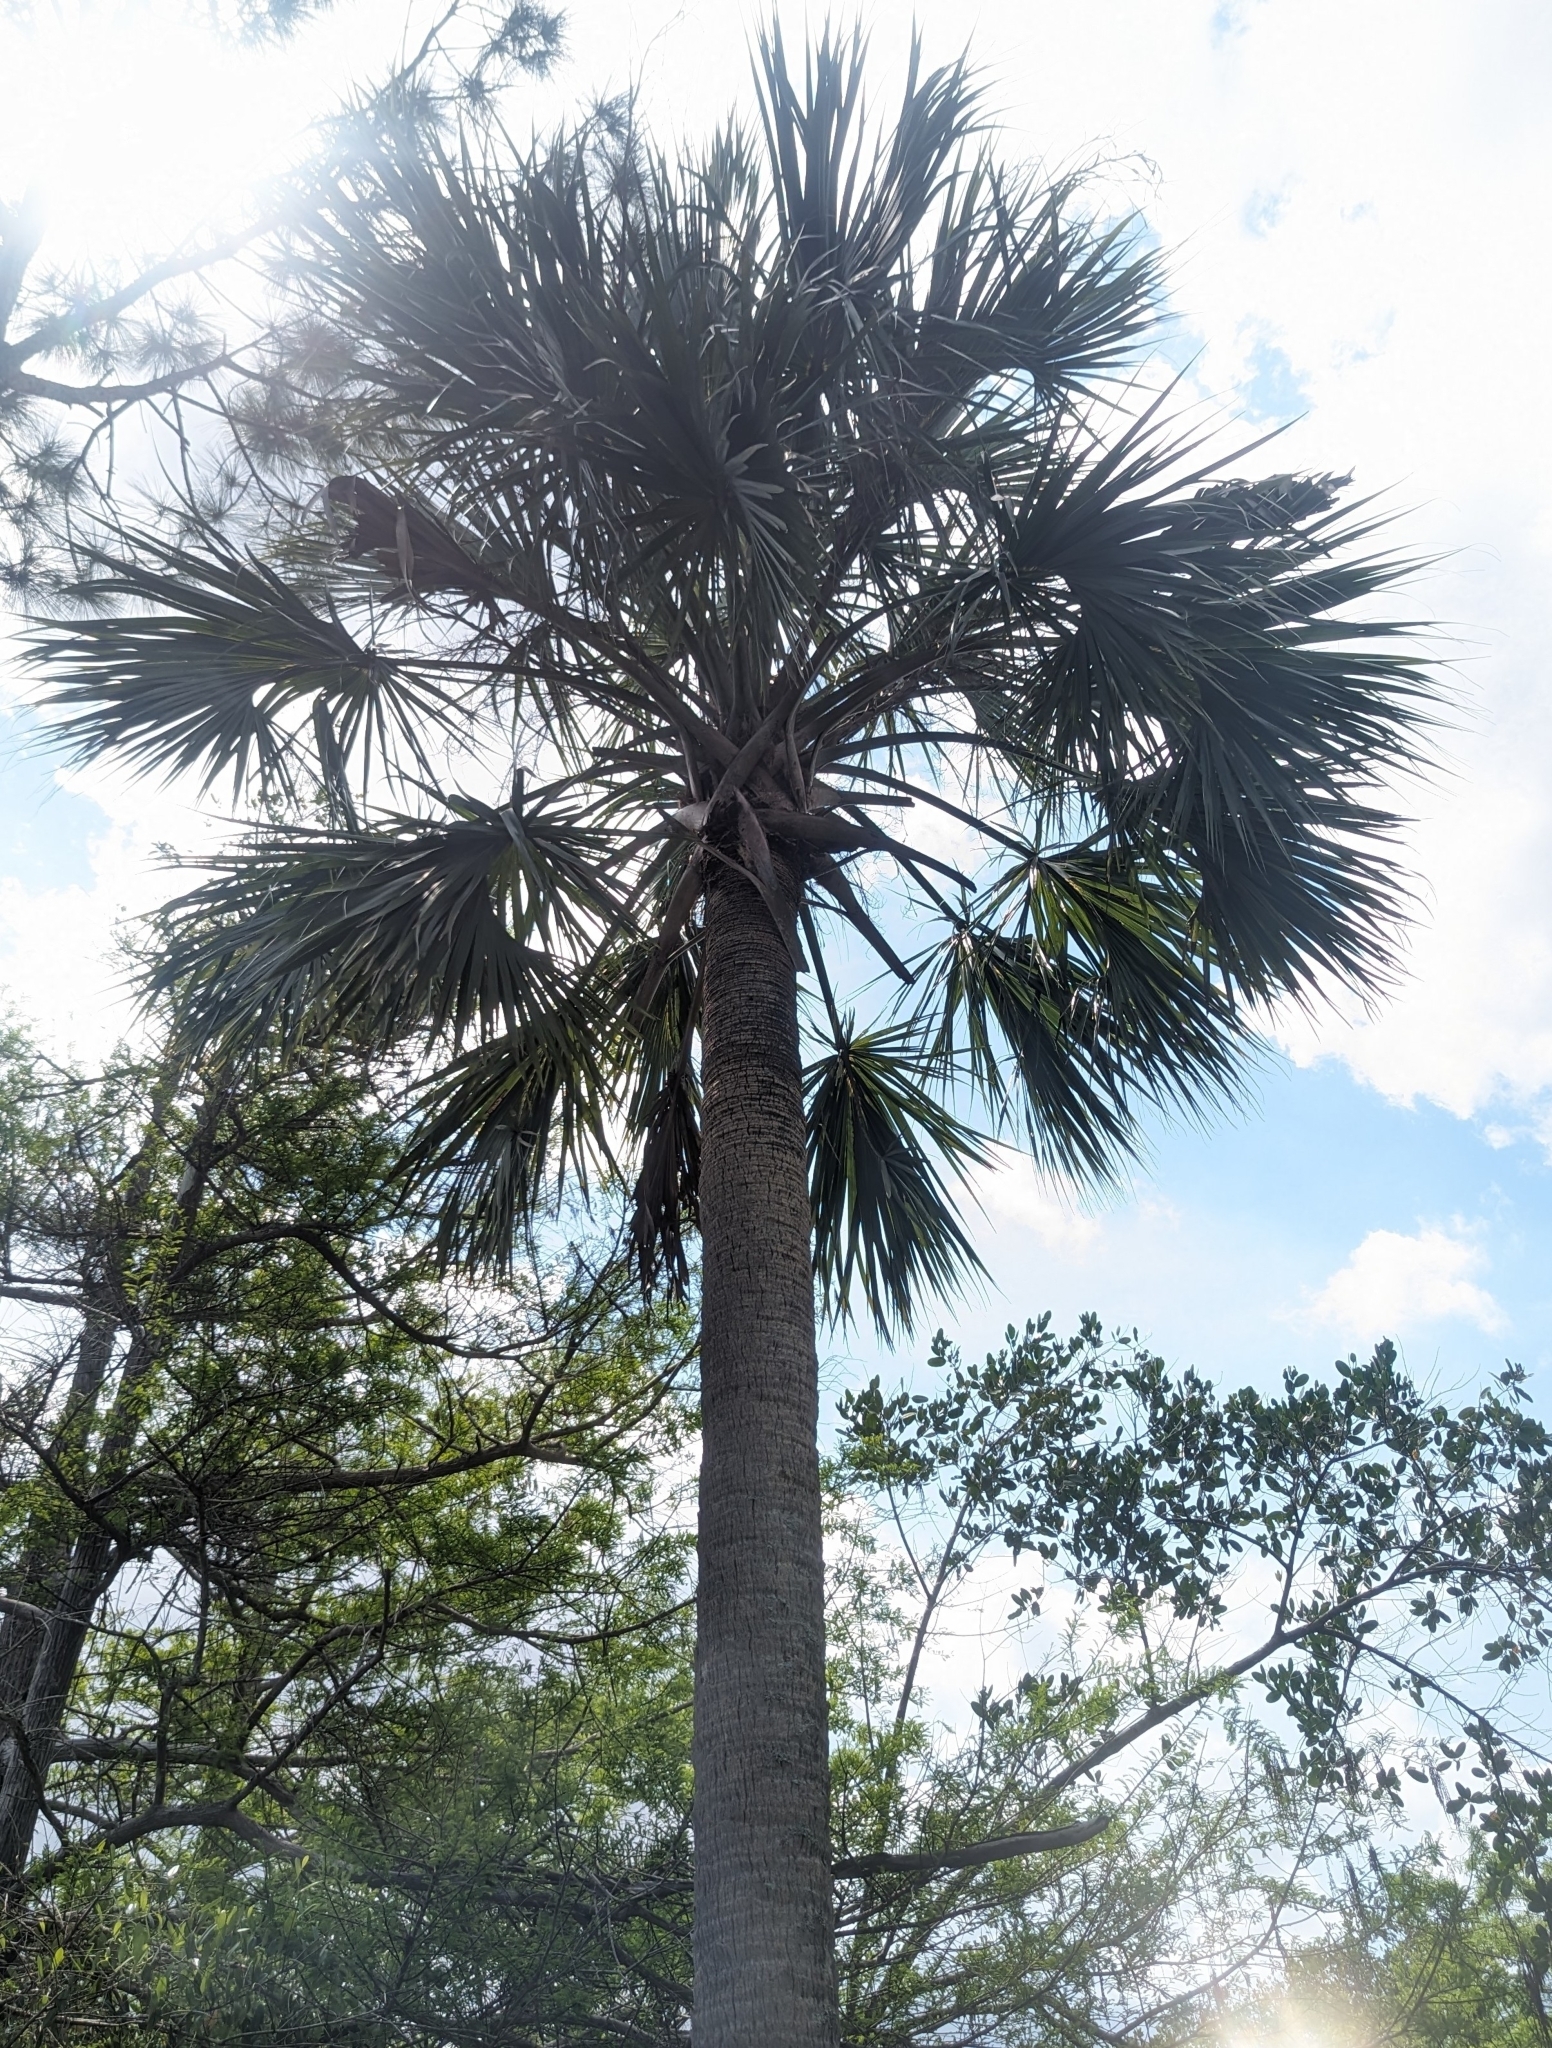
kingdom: Plantae
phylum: Tracheophyta
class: Liliopsida
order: Arecales
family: Arecaceae
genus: Sabal
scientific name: Sabal palmetto
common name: Blue palmetto
